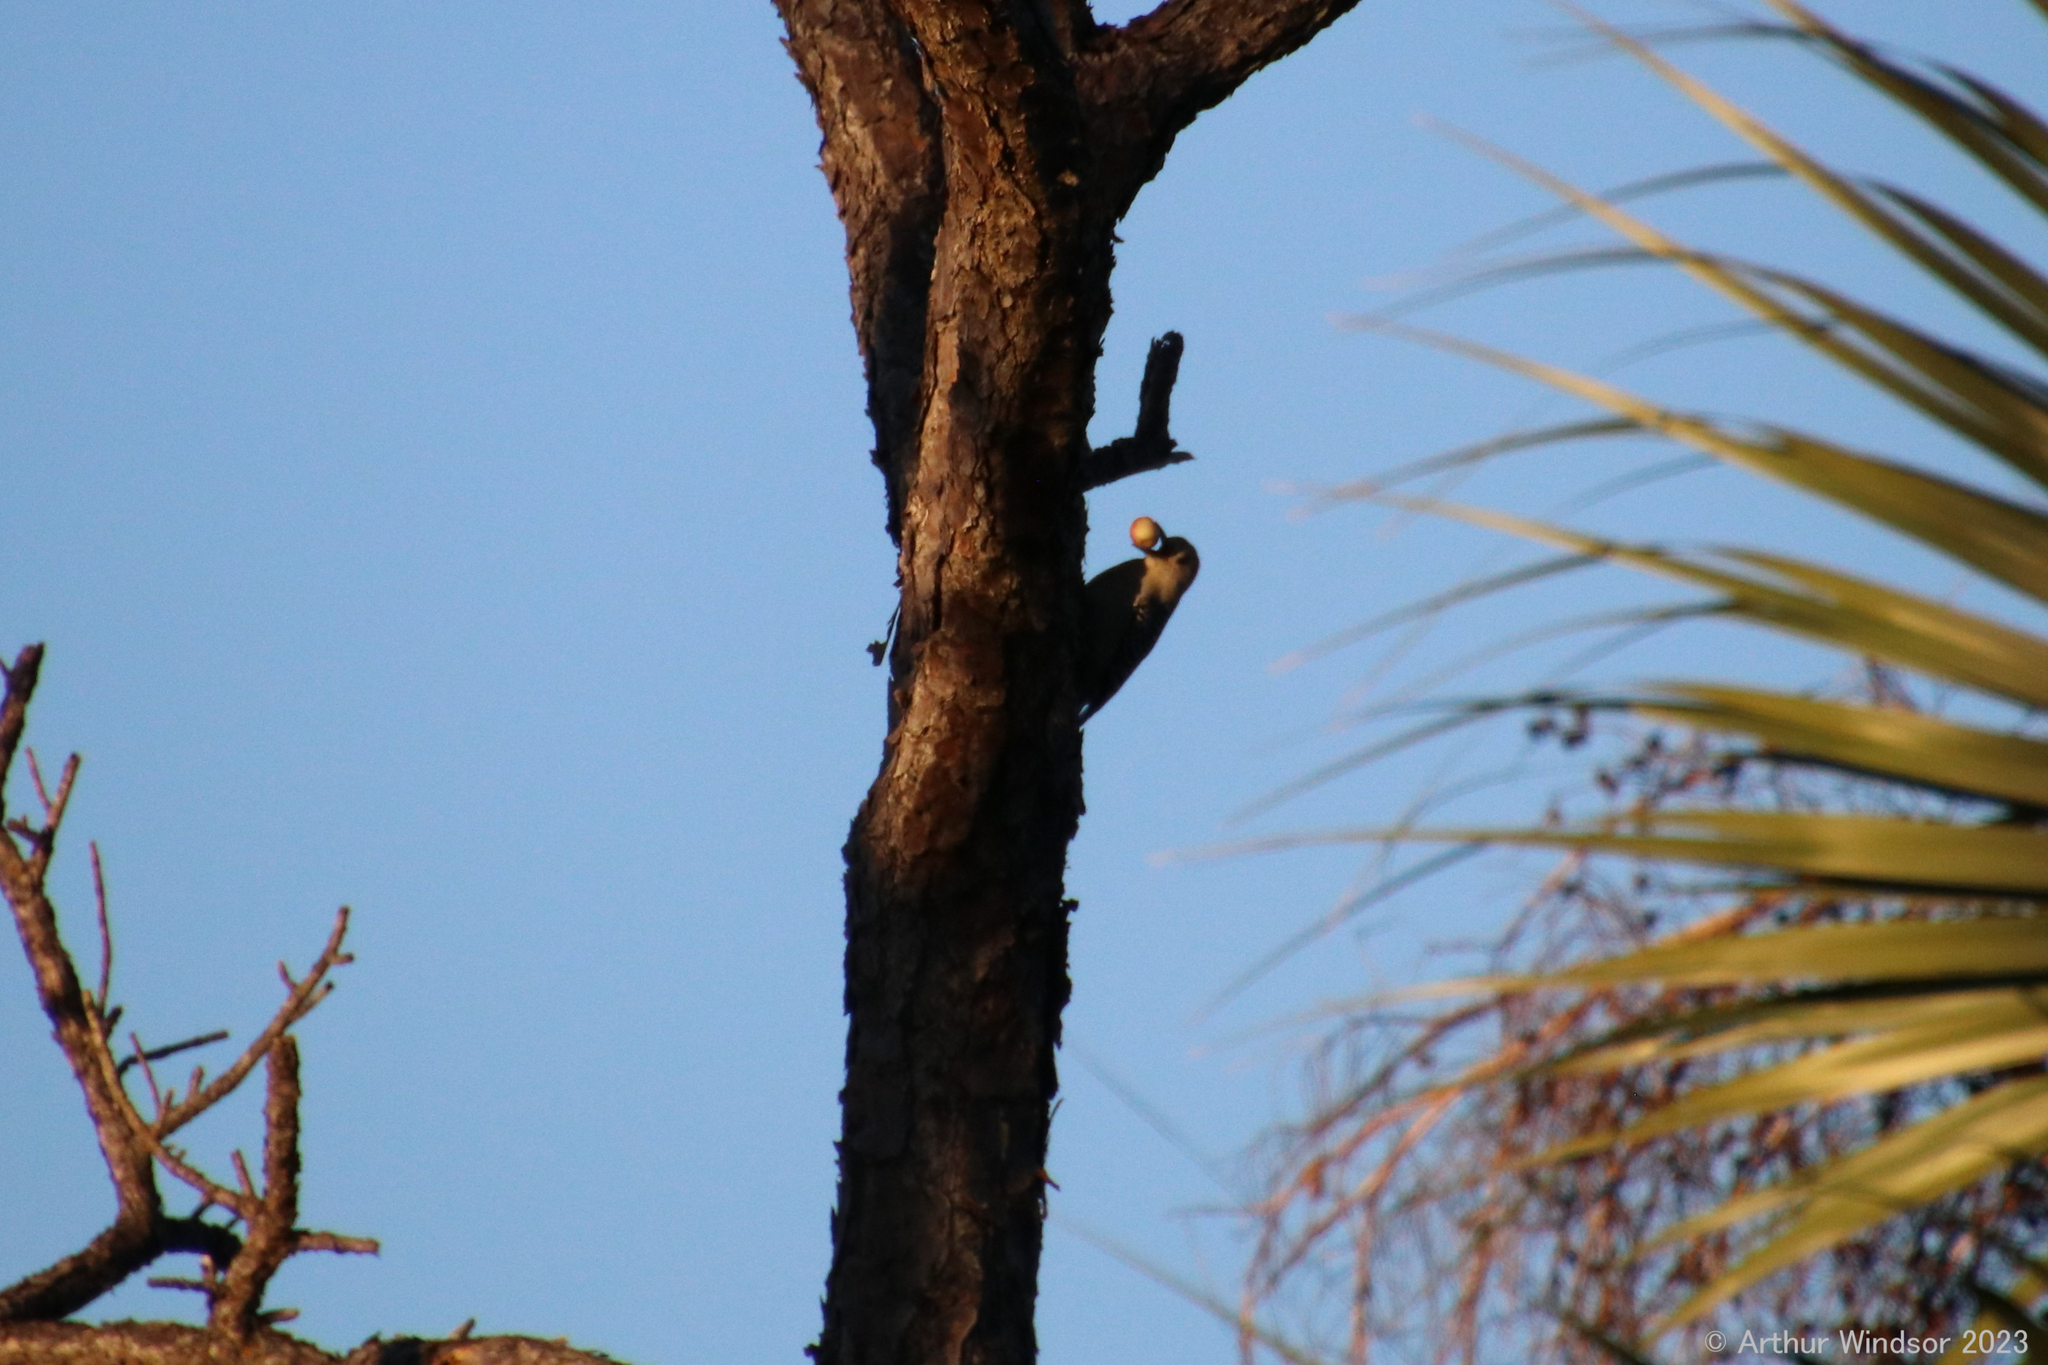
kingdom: Animalia
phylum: Chordata
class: Aves
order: Piciformes
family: Picidae
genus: Melanerpes
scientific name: Melanerpes carolinus
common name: Red-bellied woodpecker
